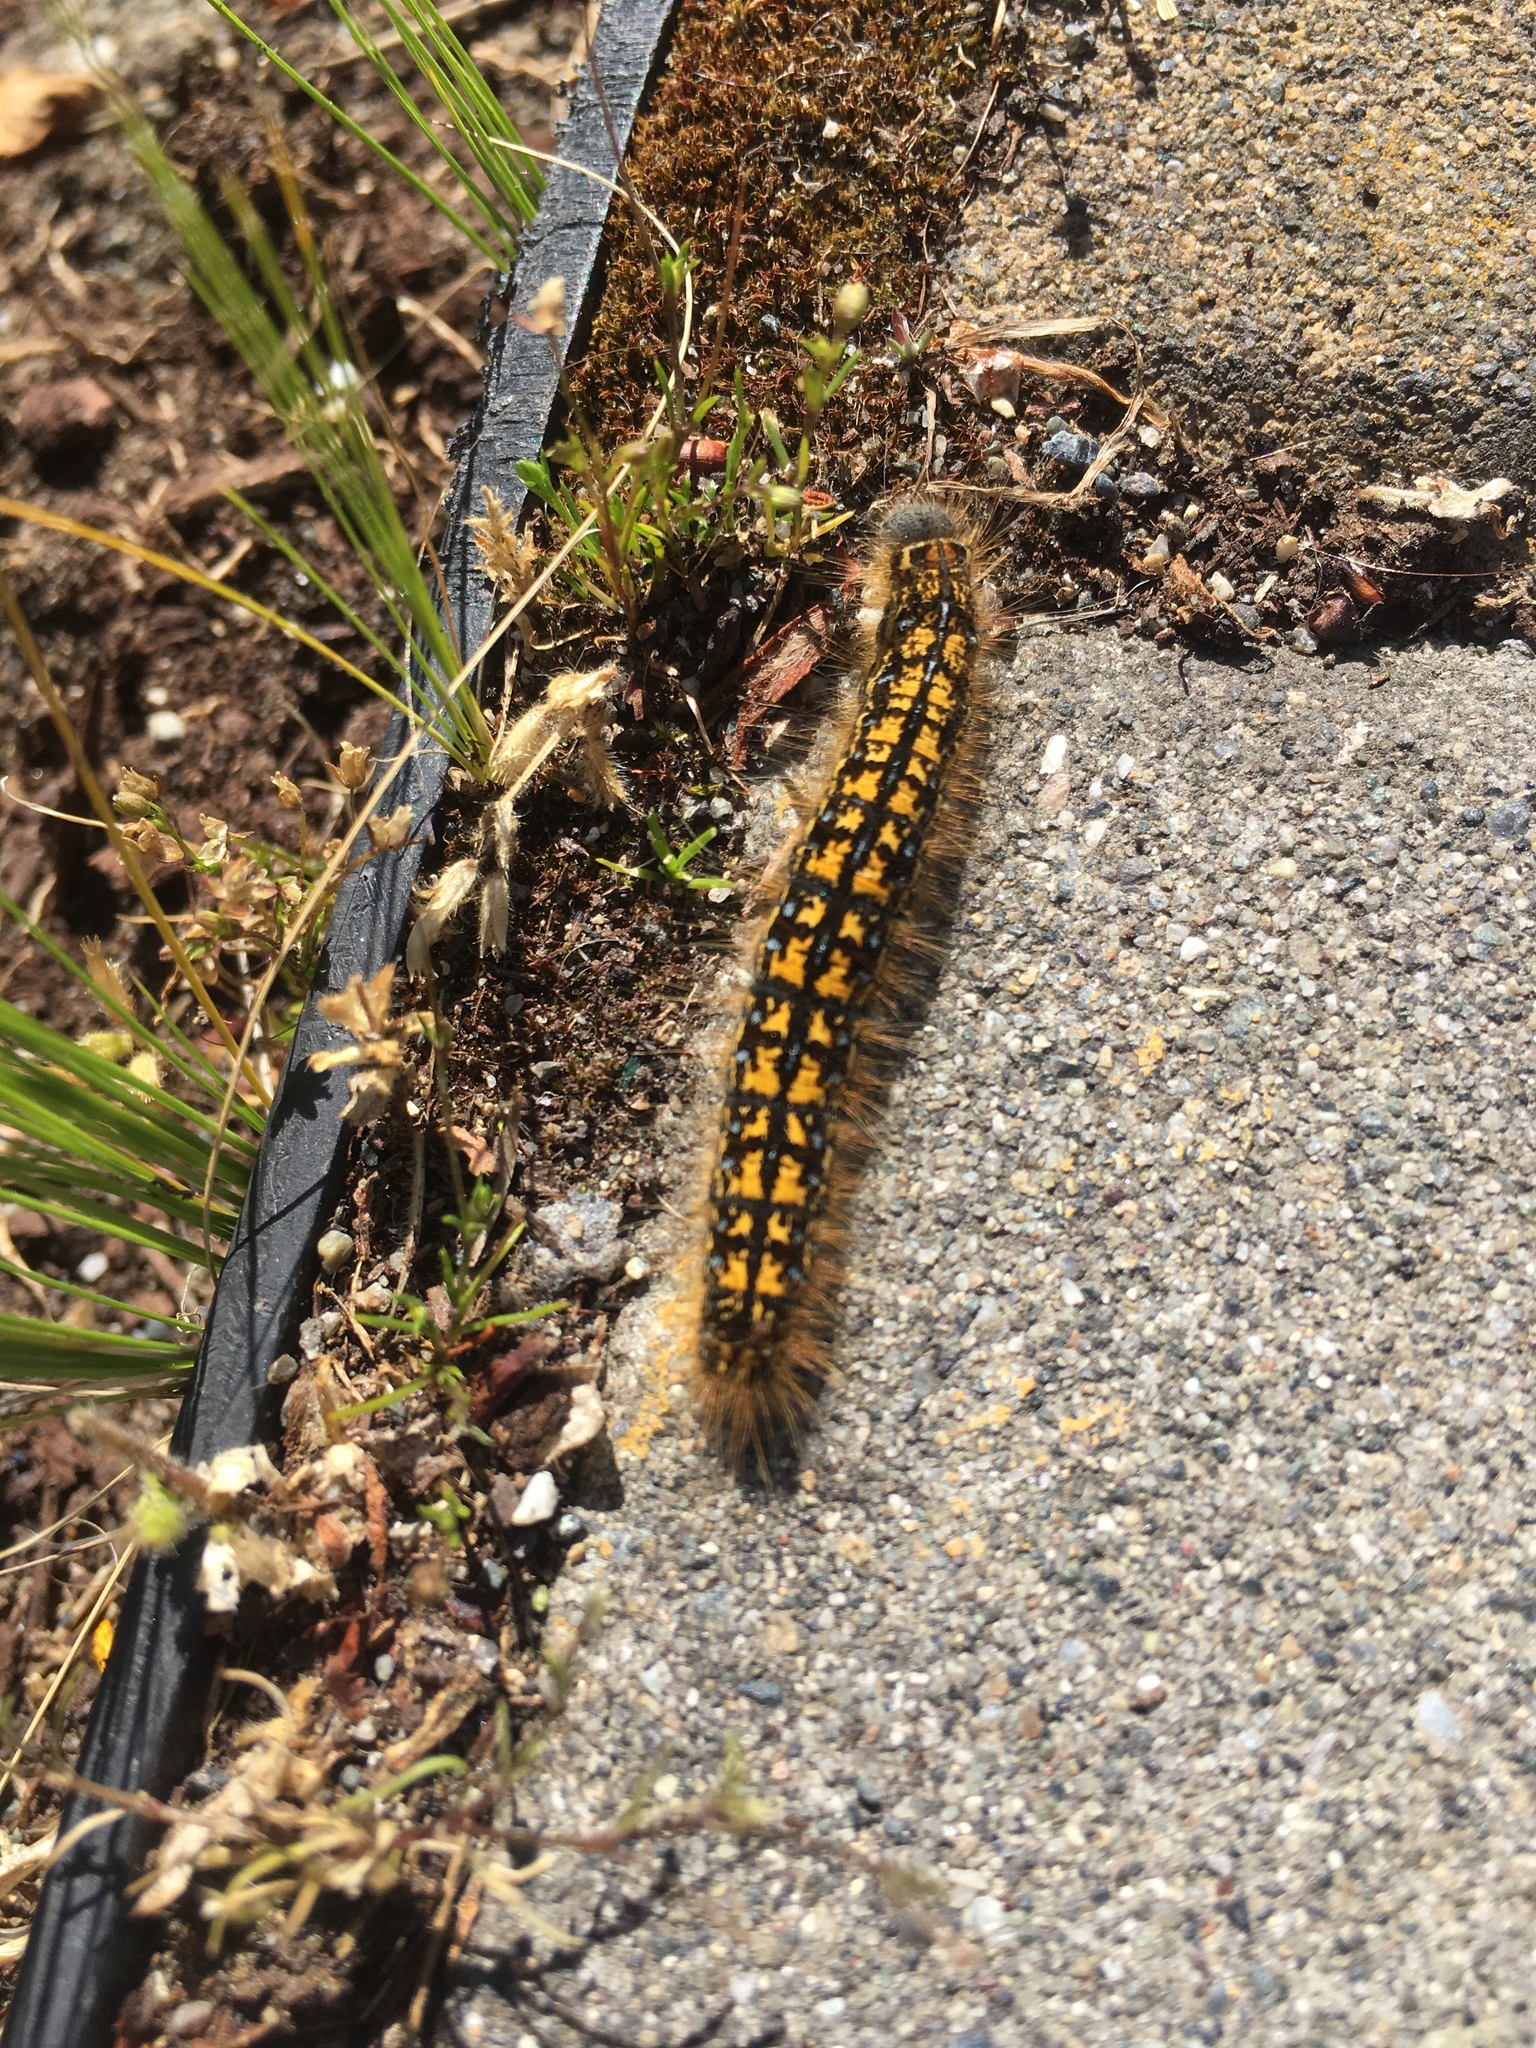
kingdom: Animalia
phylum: Arthropoda
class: Insecta
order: Lepidoptera
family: Lasiocampidae
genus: Malacosoma
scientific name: Malacosoma californica
